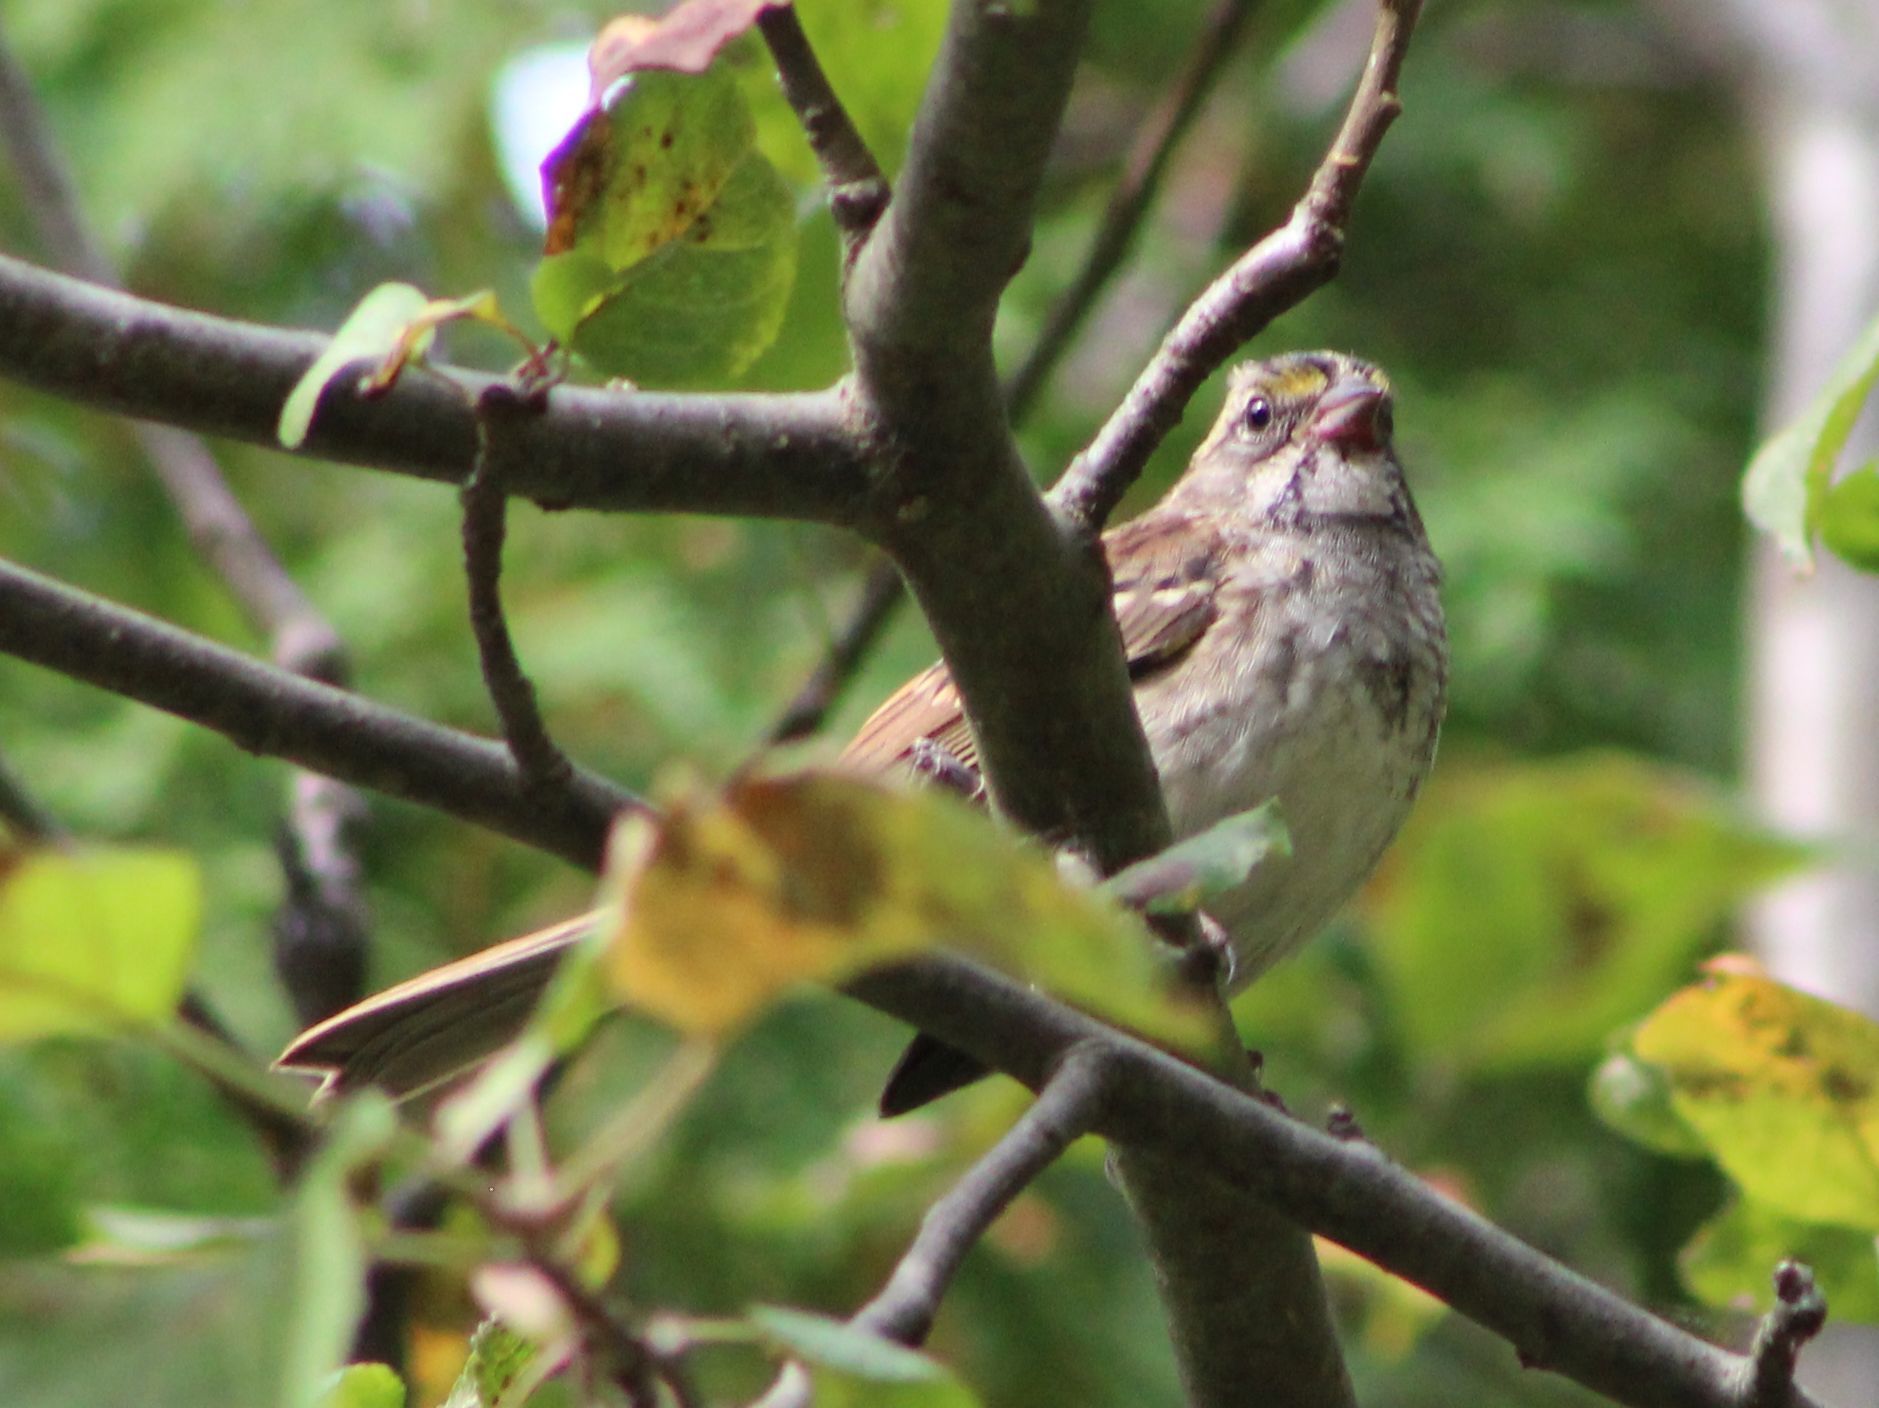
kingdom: Animalia
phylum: Chordata
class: Aves
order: Passeriformes
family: Passerellidae
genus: Zonotrichia
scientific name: Zonotrichia albicollis
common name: White-throated sparrow
